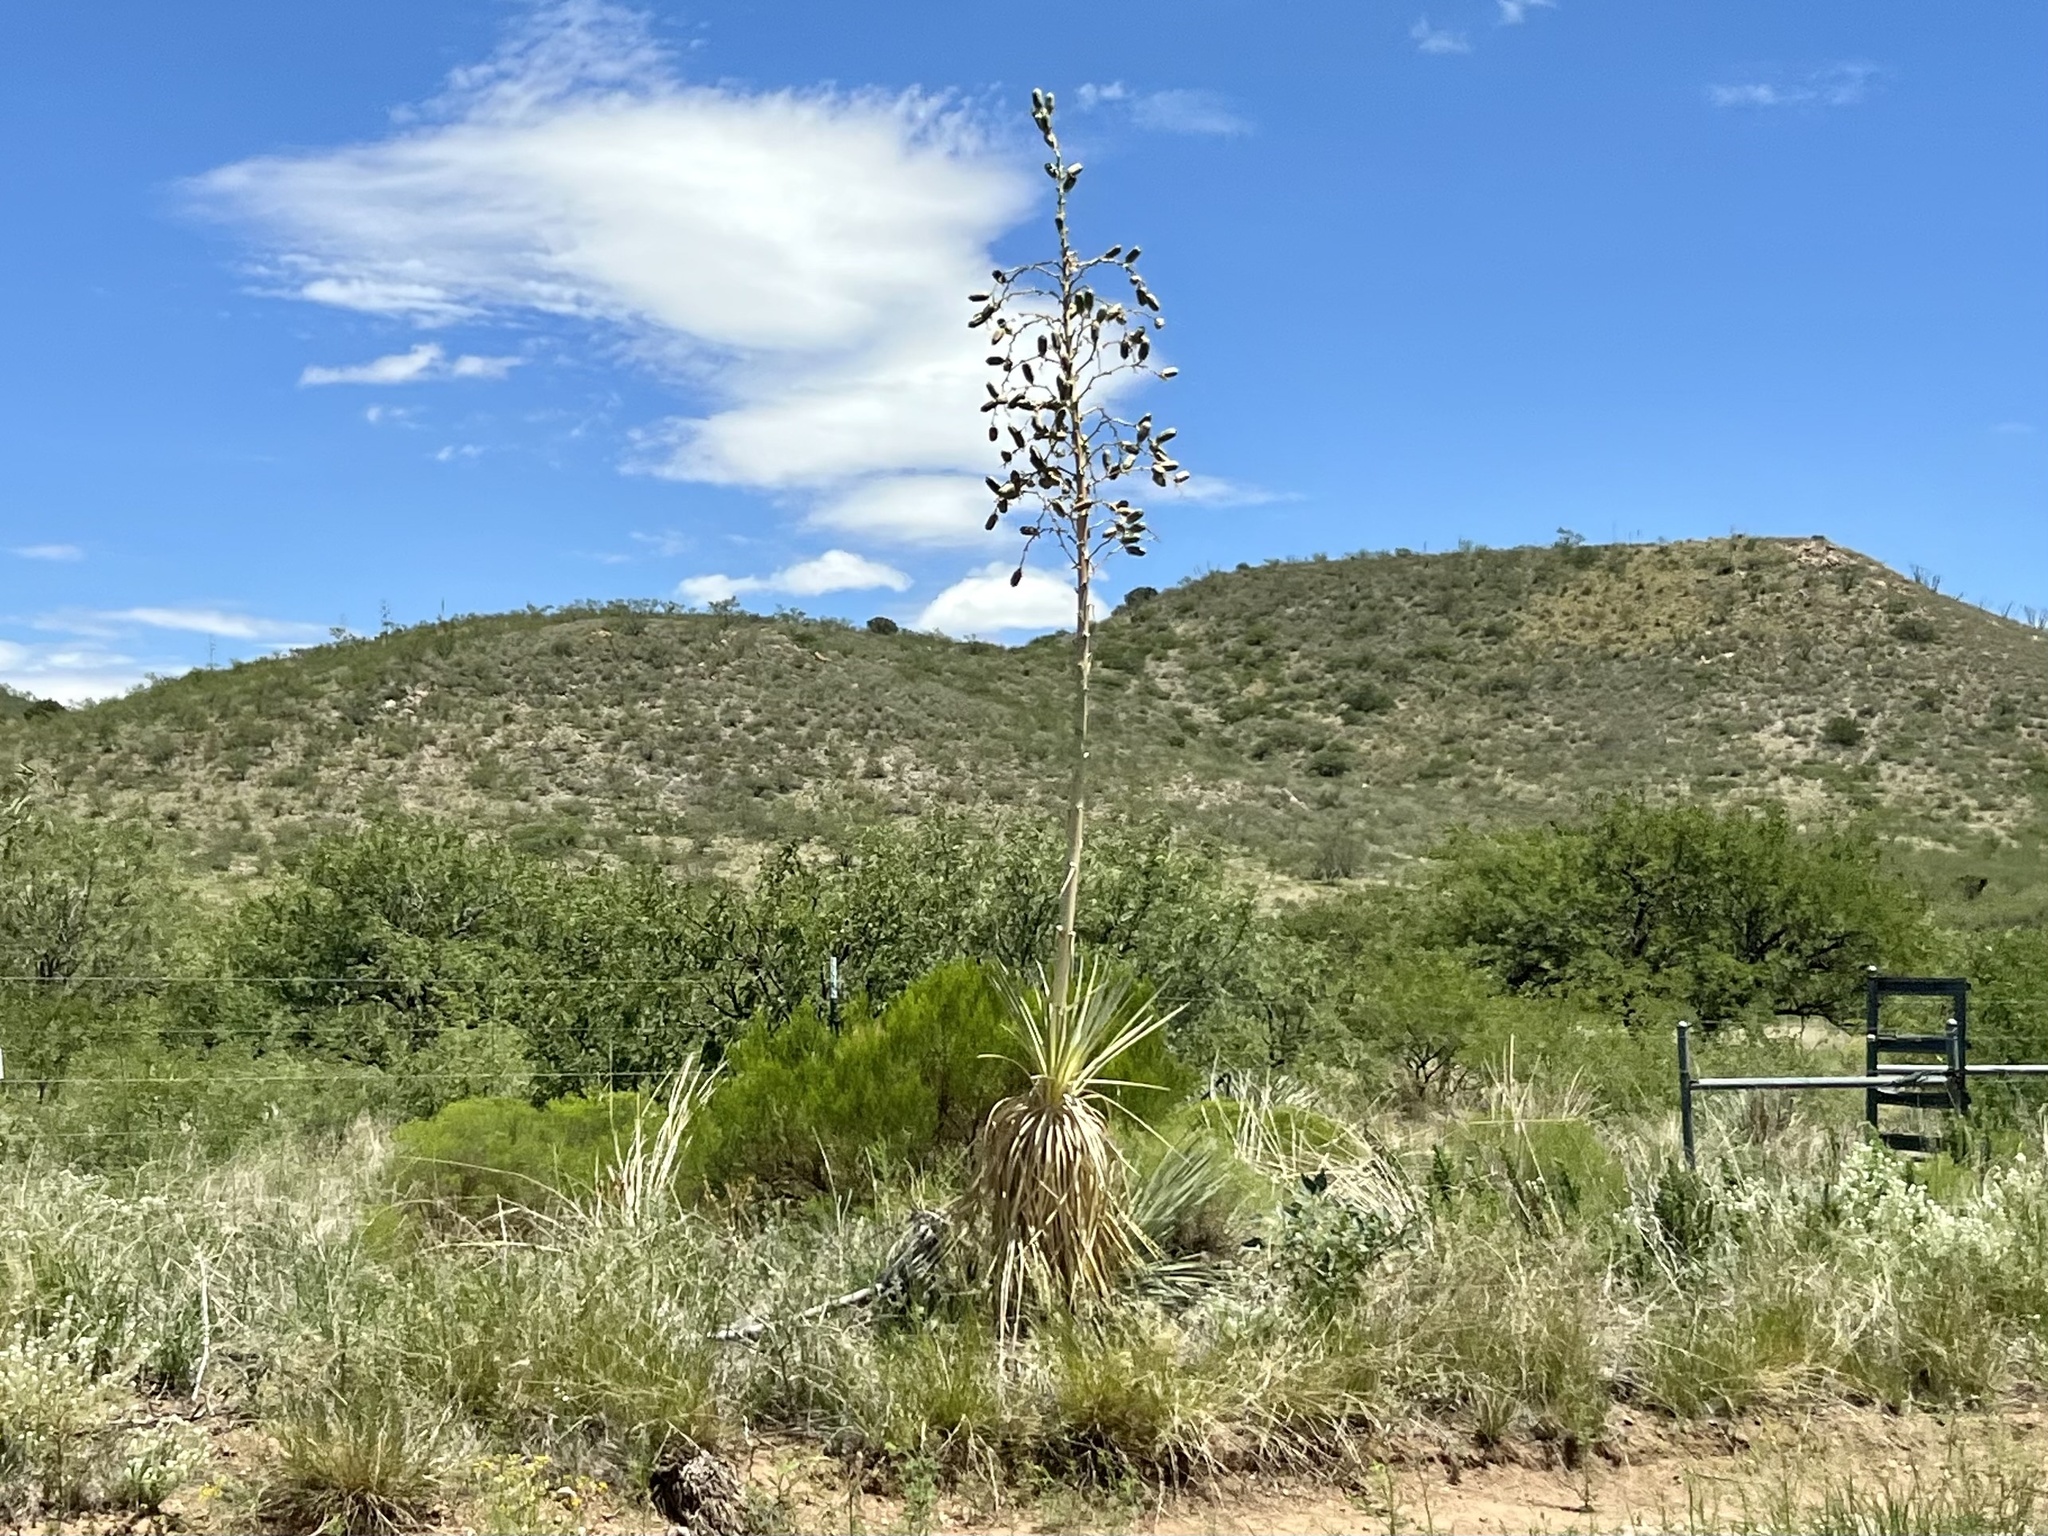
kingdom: Plantae
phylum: Tracheophyta
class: Liliopsida
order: Asparagales
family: Asparagaceae
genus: Yucca
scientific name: Yucca elata
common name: Palmella
